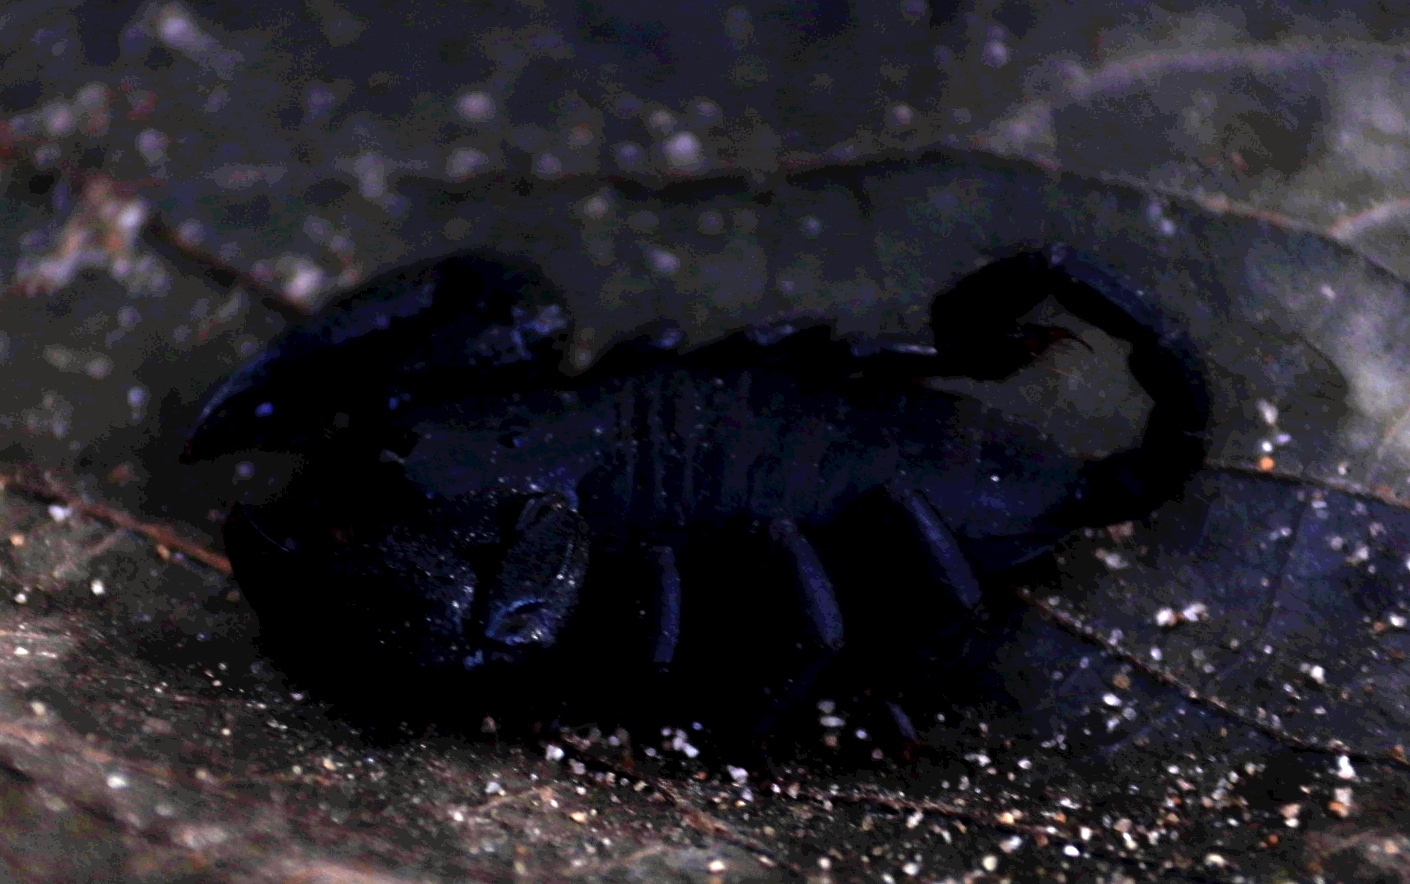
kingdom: Animalia
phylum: Arthropoda
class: Arachnida
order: Scorpiones
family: Hormuridae
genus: Opisthacanthus
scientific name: Opisthacanthus capensis
